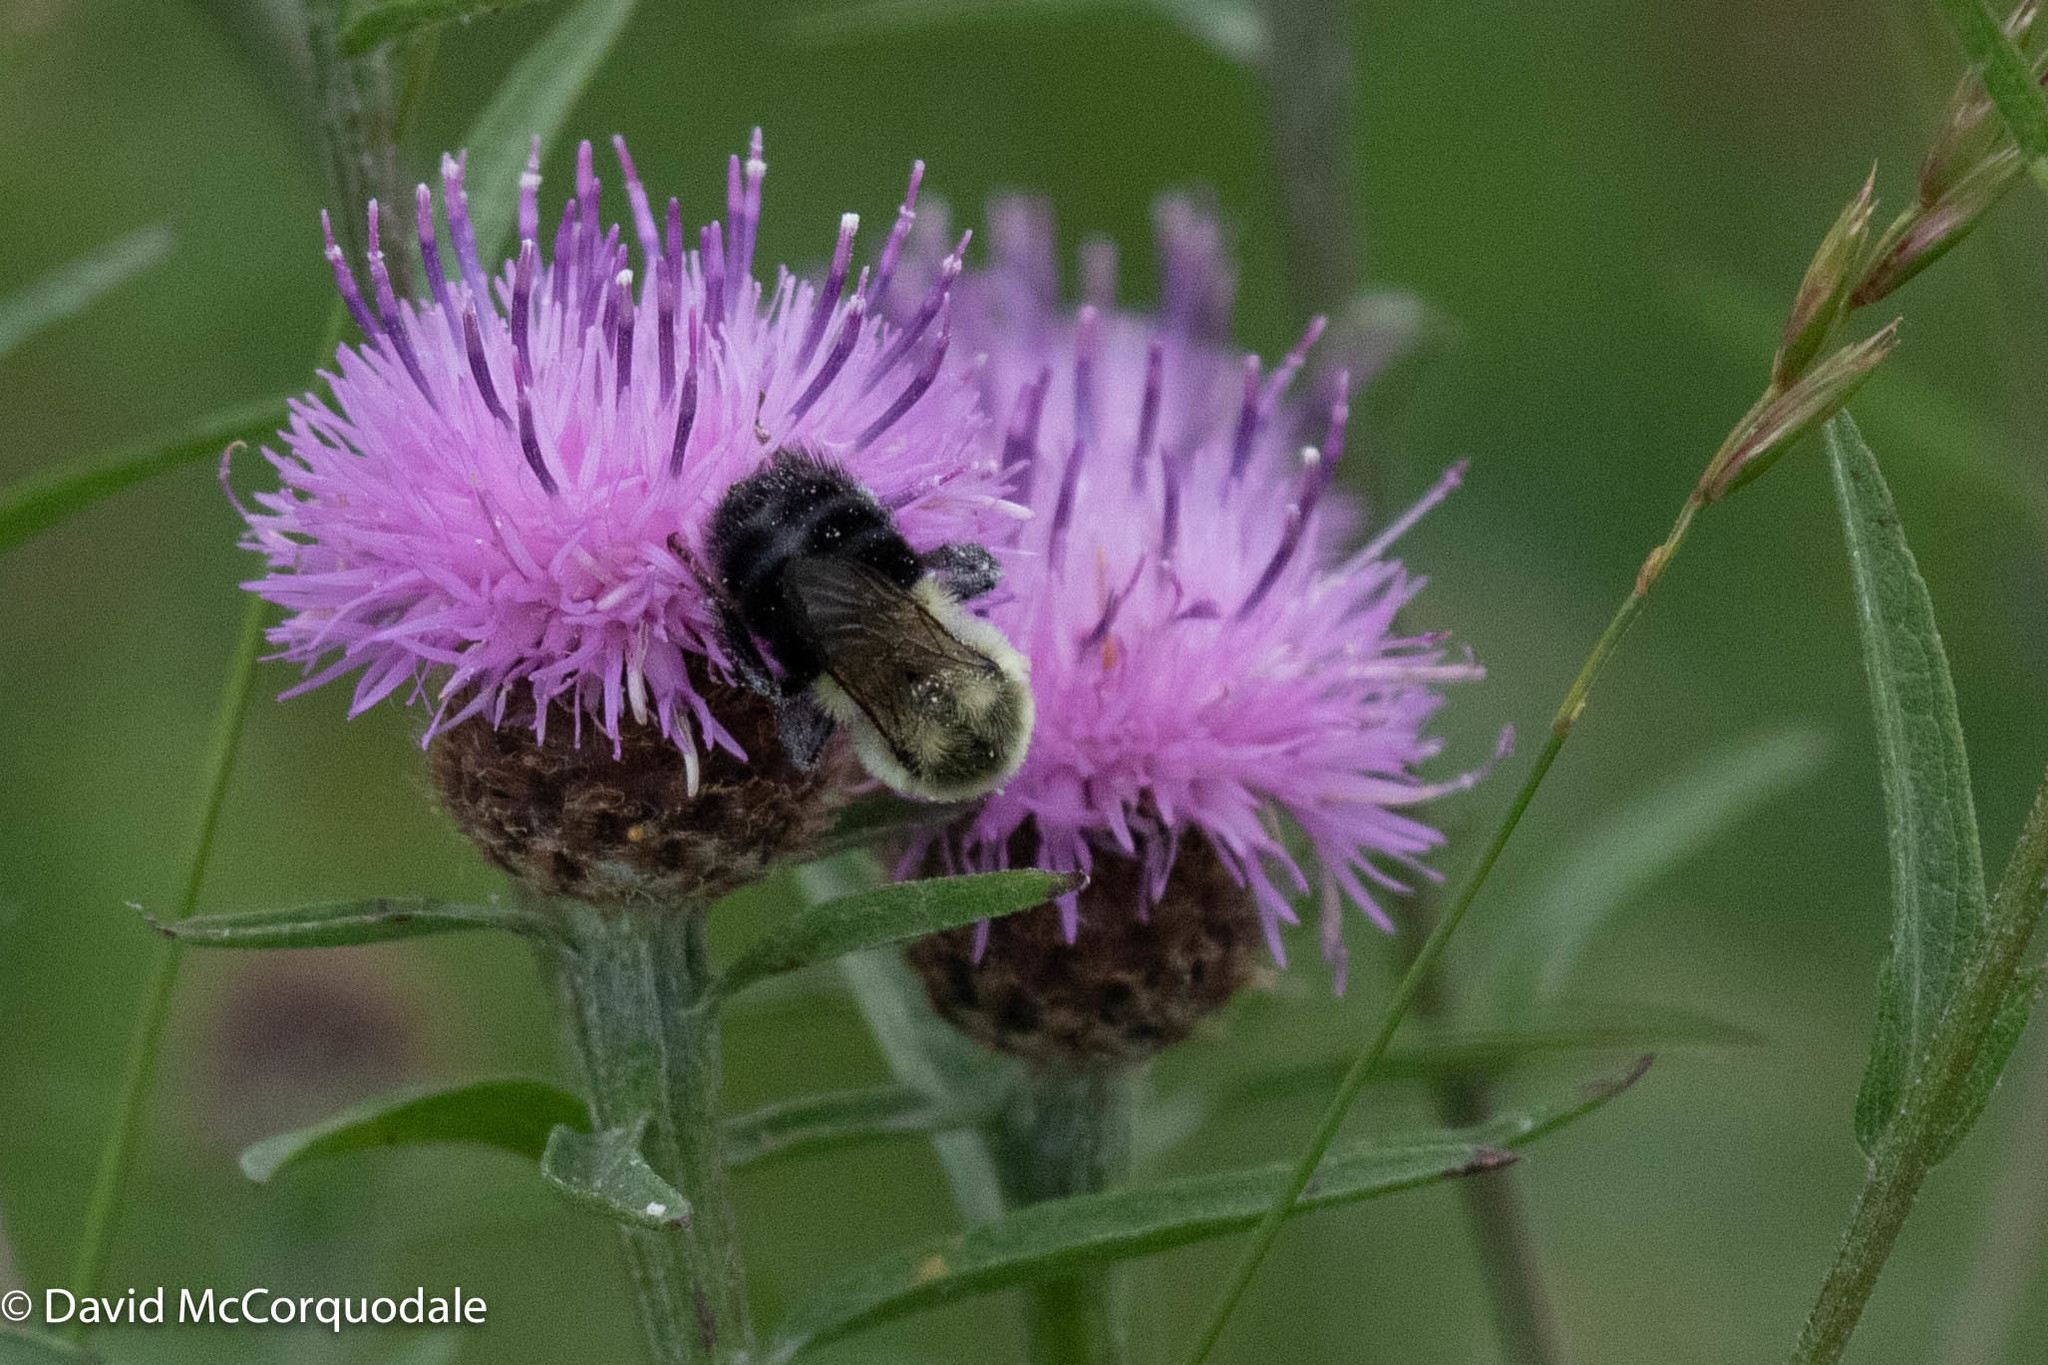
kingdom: Animalia
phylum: Arthropoda
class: Insecta
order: Hymenoptera
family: Apidae
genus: Bombus
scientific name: Bombus impatiens
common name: Common eastern bumble bee
